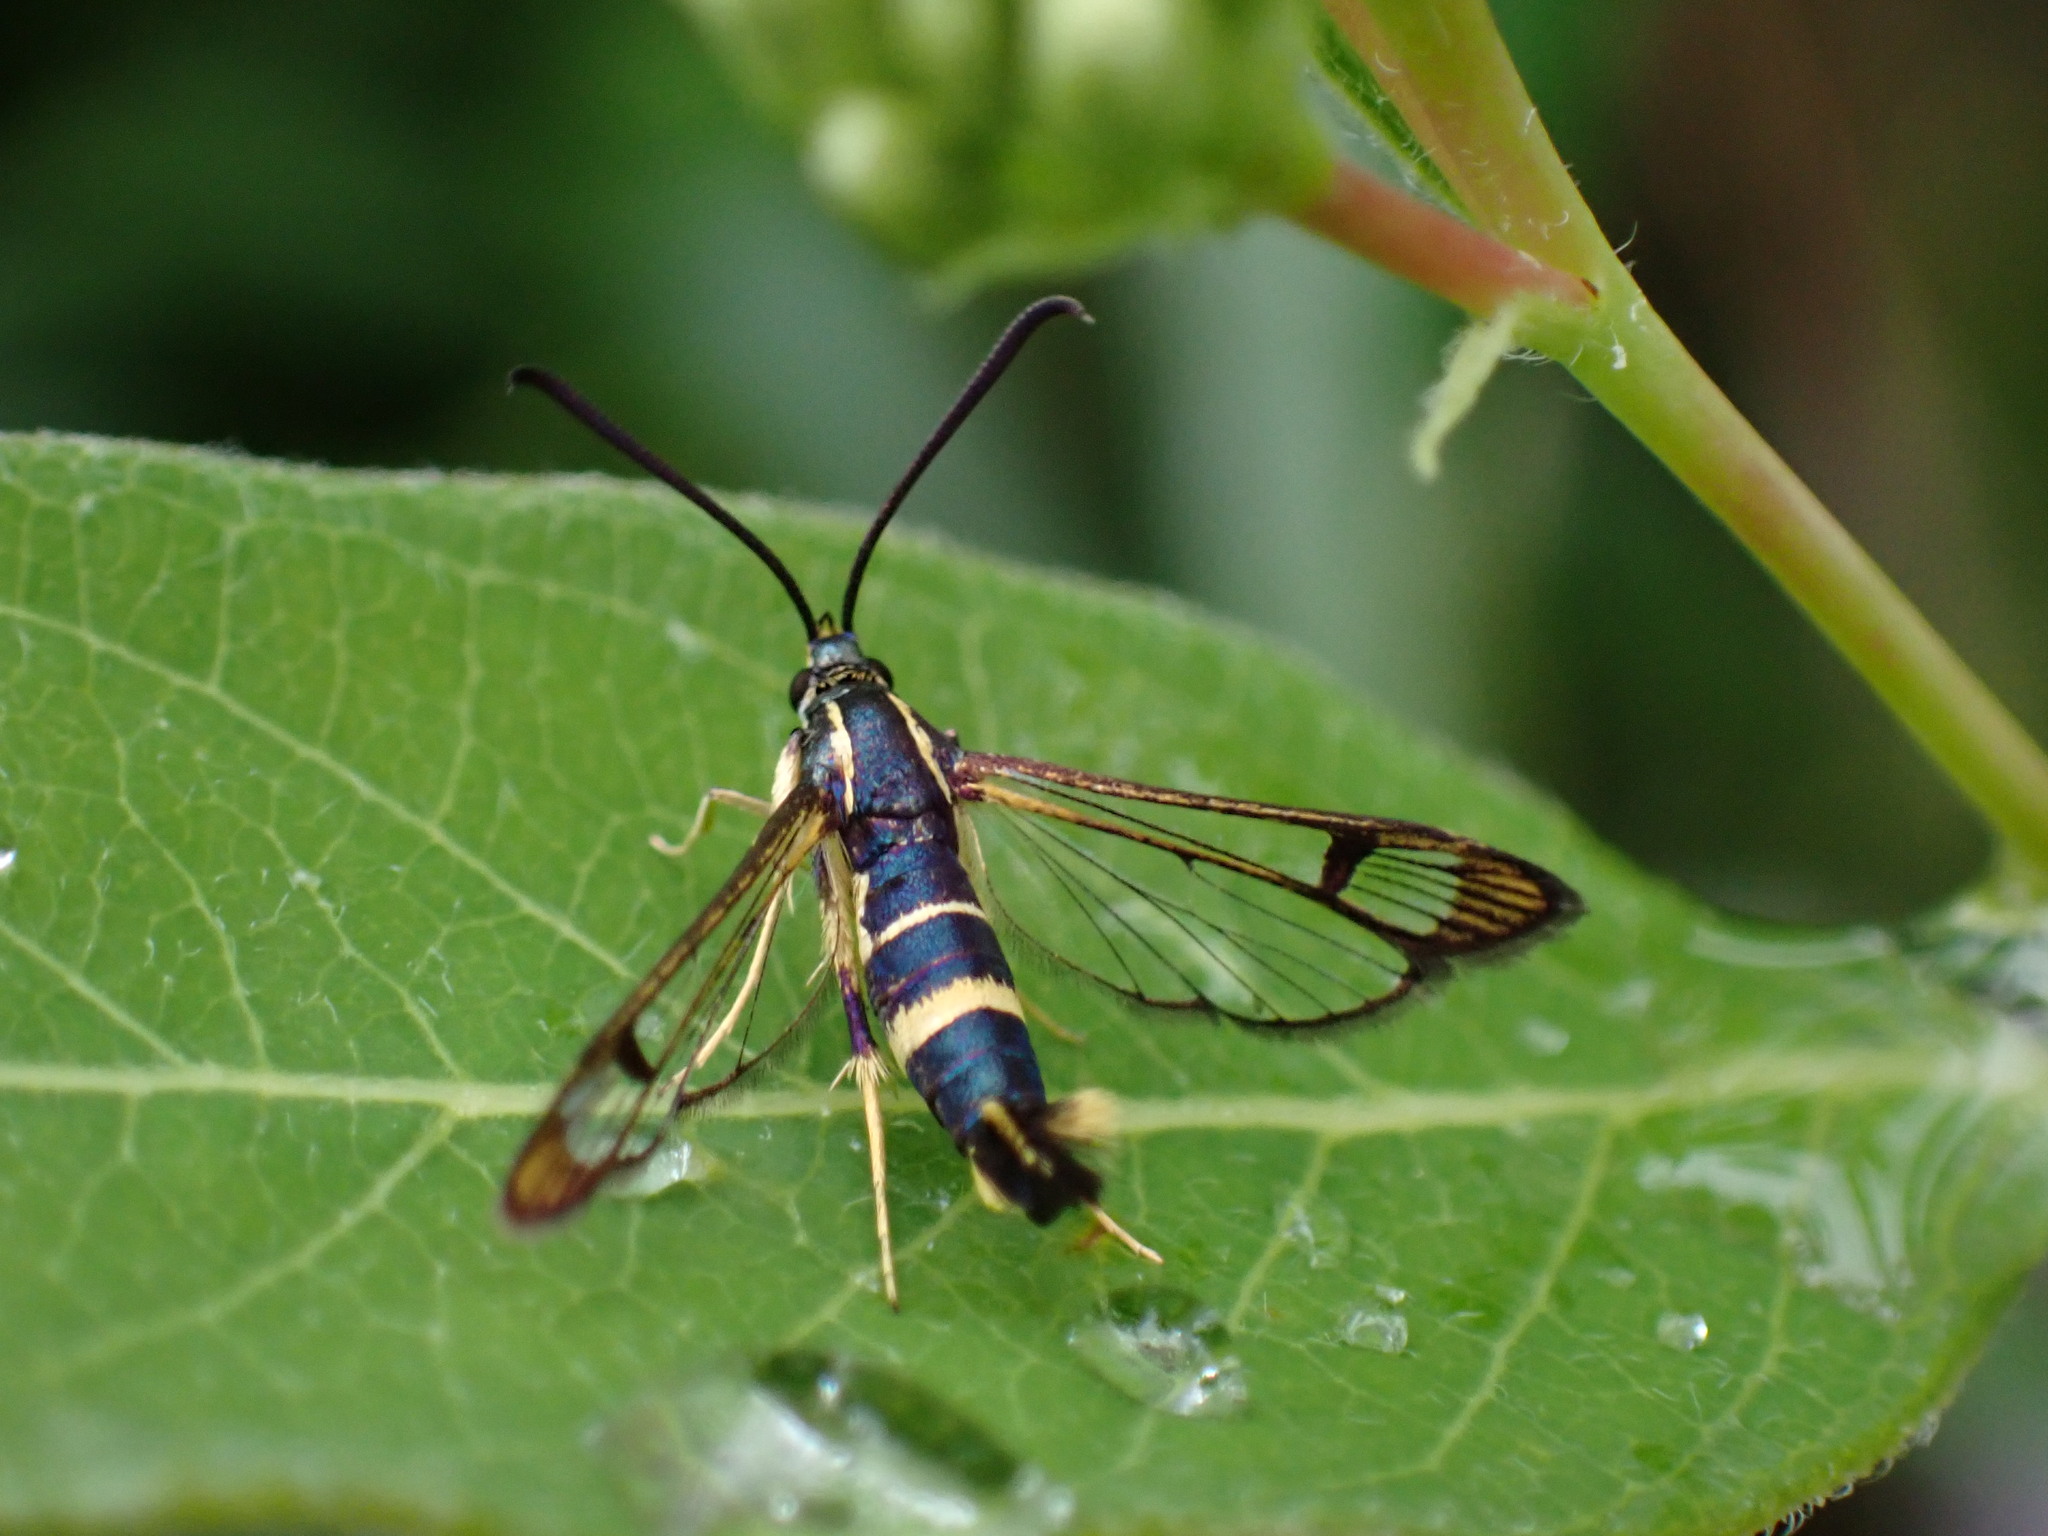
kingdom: Animalia
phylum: Arthropoda
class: Insecta
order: Lepidoptera
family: Sesiidae
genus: Synanthedon
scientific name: Synanthedon scitula
